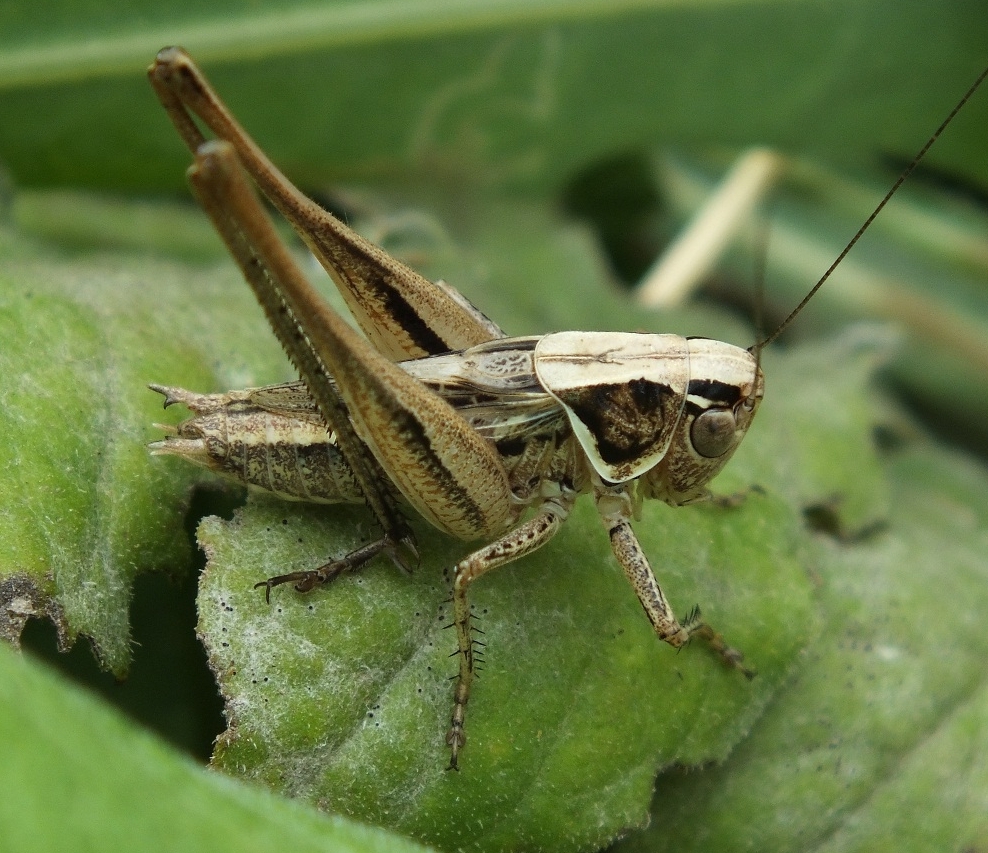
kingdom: Animalia
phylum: Arthropoda
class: Insecta
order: Orthoptera
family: Tettigoniidae
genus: Tessellana
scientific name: Tessellana veyseli
